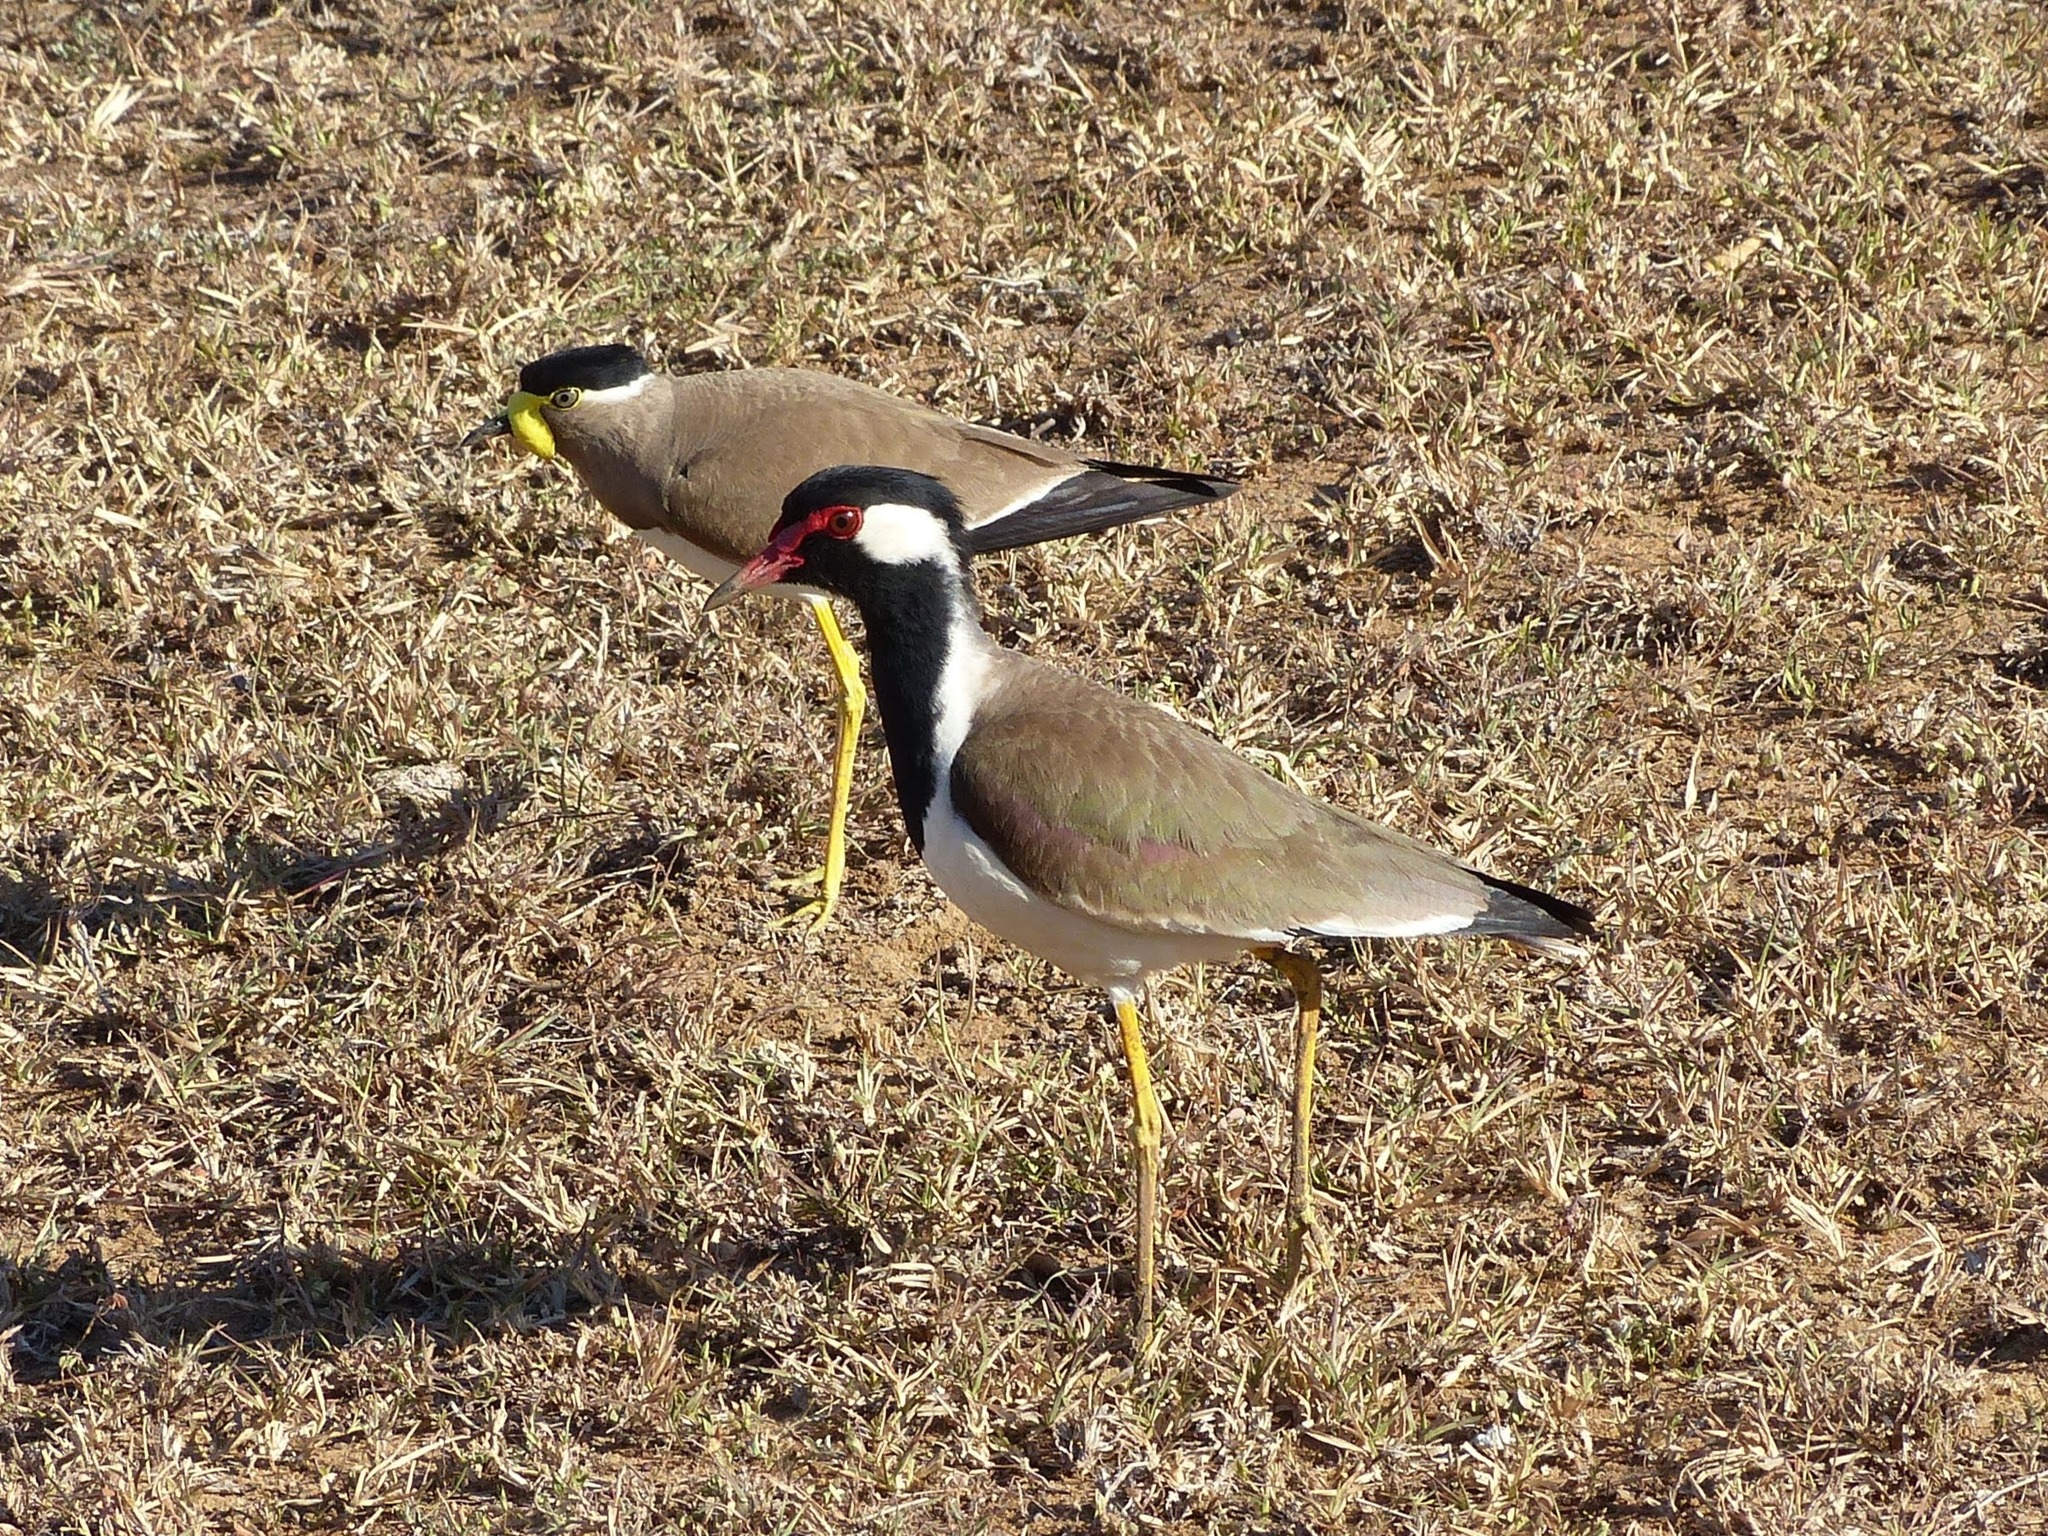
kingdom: Animalia
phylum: Chordata
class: Aves
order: Charadriiformes
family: Charadriidae
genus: Vanellus
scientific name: Vanellus indicus
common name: Red-wattled lapwing
